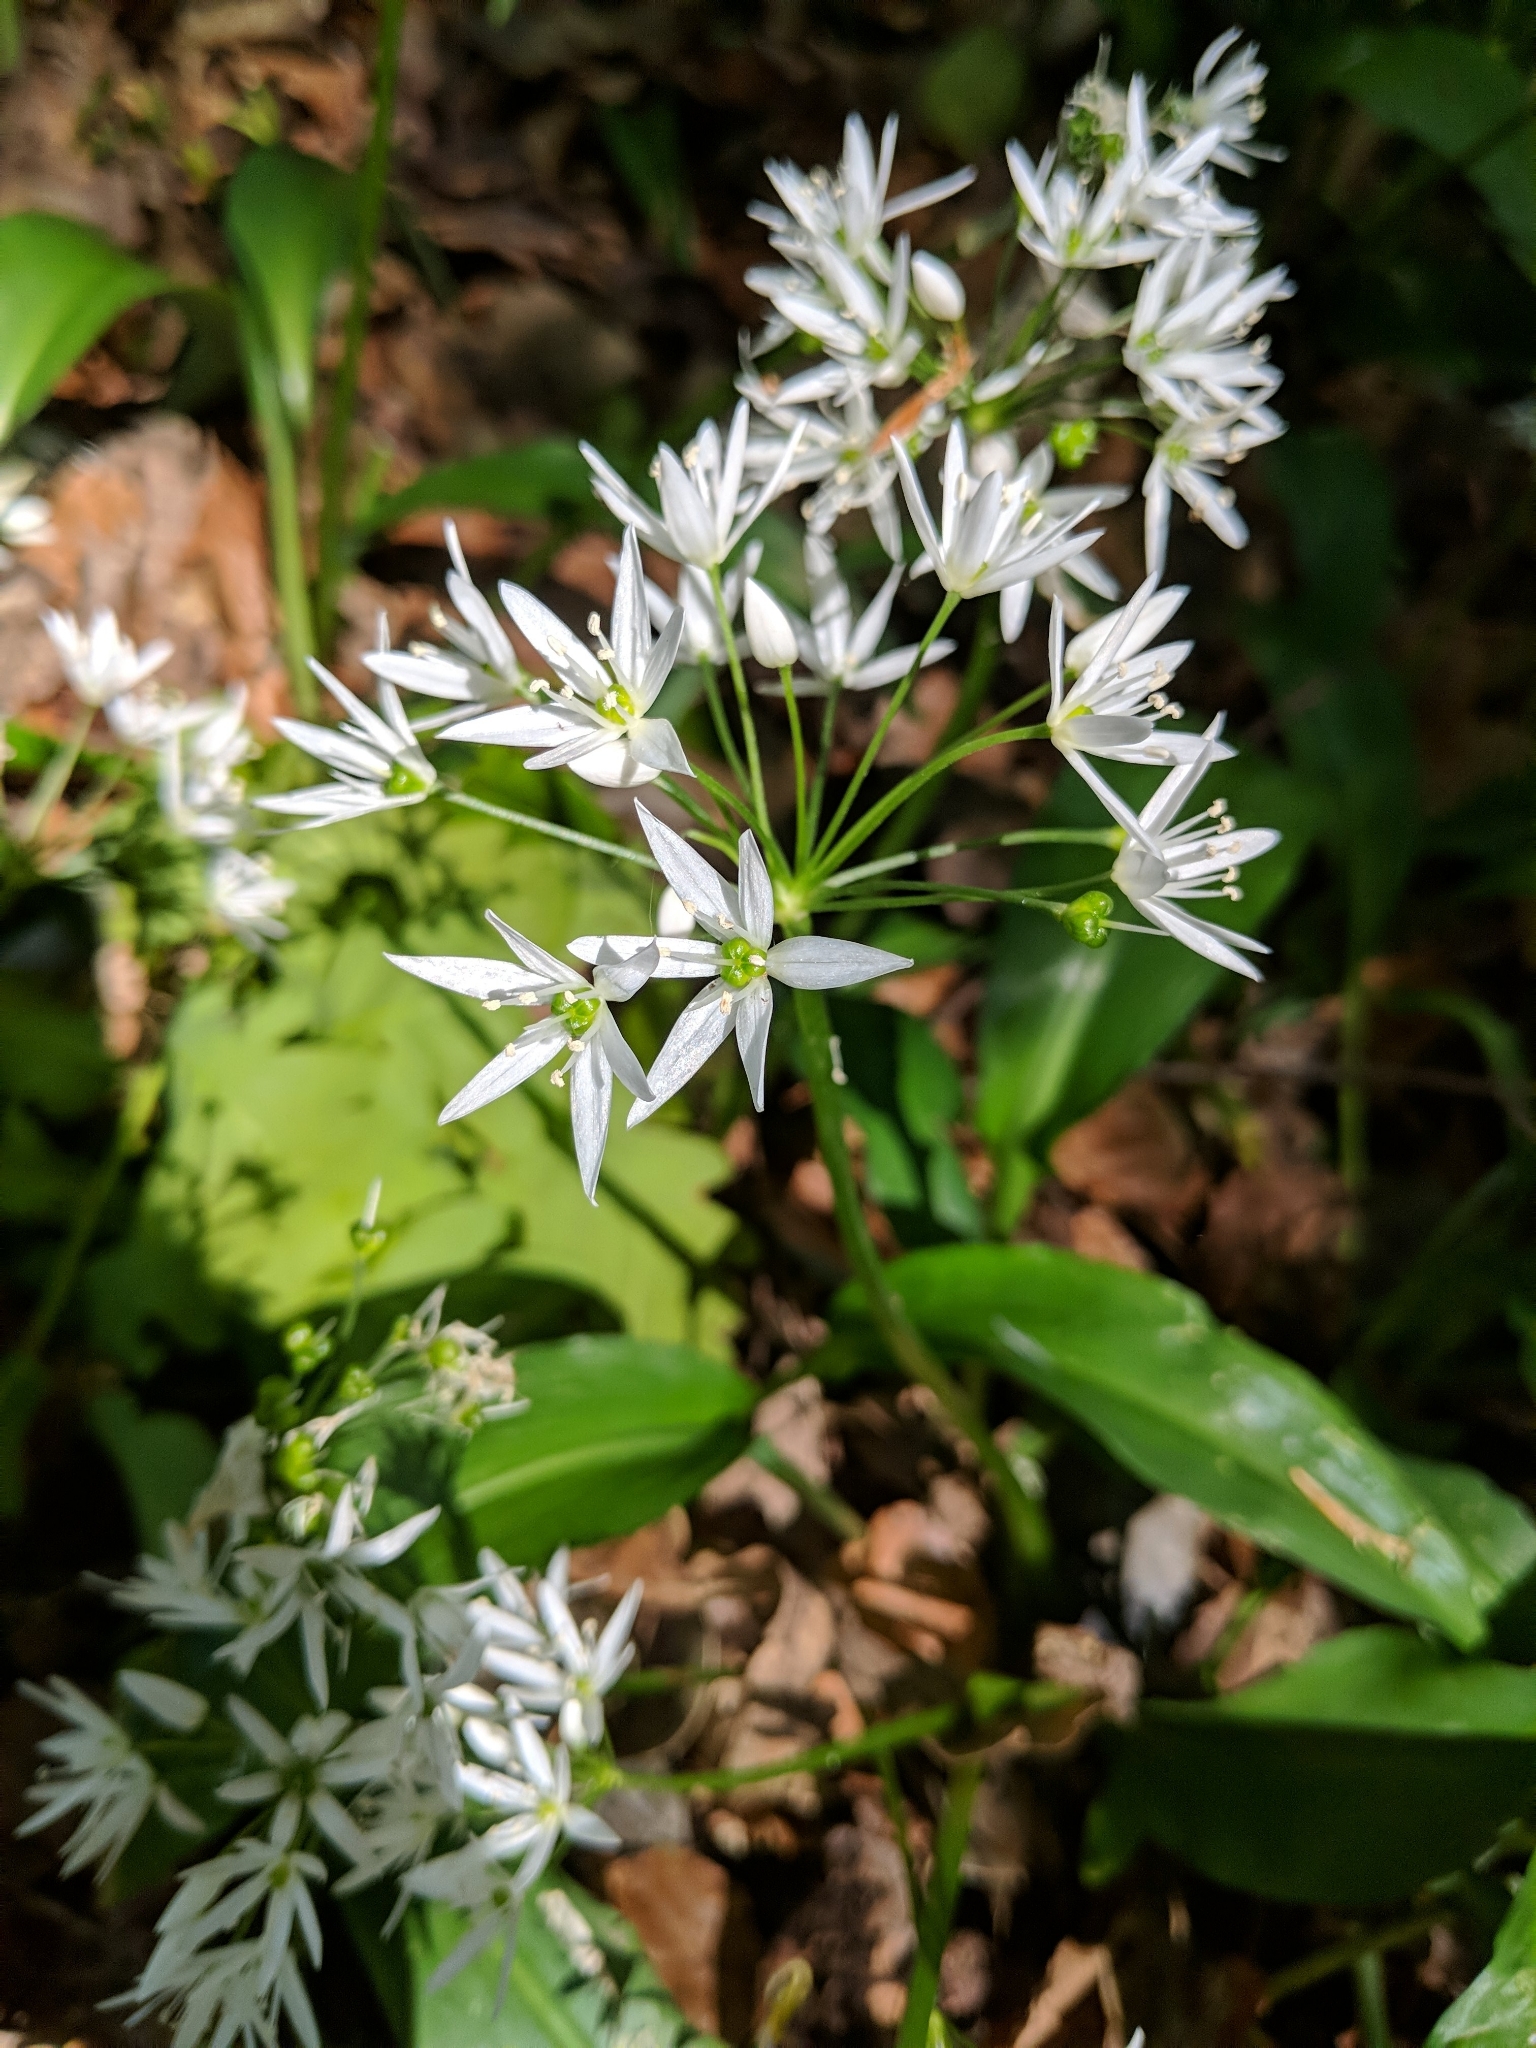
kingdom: Plantae
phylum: Tracheophyta
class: Liliopsida
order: Asparagales
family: Amaryllidaceae
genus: Allium
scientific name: Allium ursinum
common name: Ramsons
